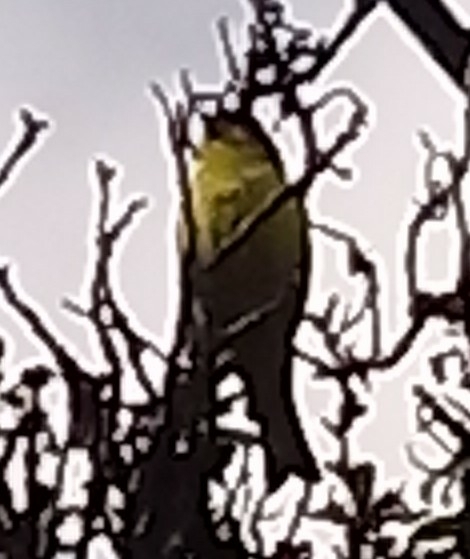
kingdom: Animalia
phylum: Chordata
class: Aves
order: Passeriformes
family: Fringillidae
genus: Spinus
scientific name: Spinus psaltria
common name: Lesser goldfinch
